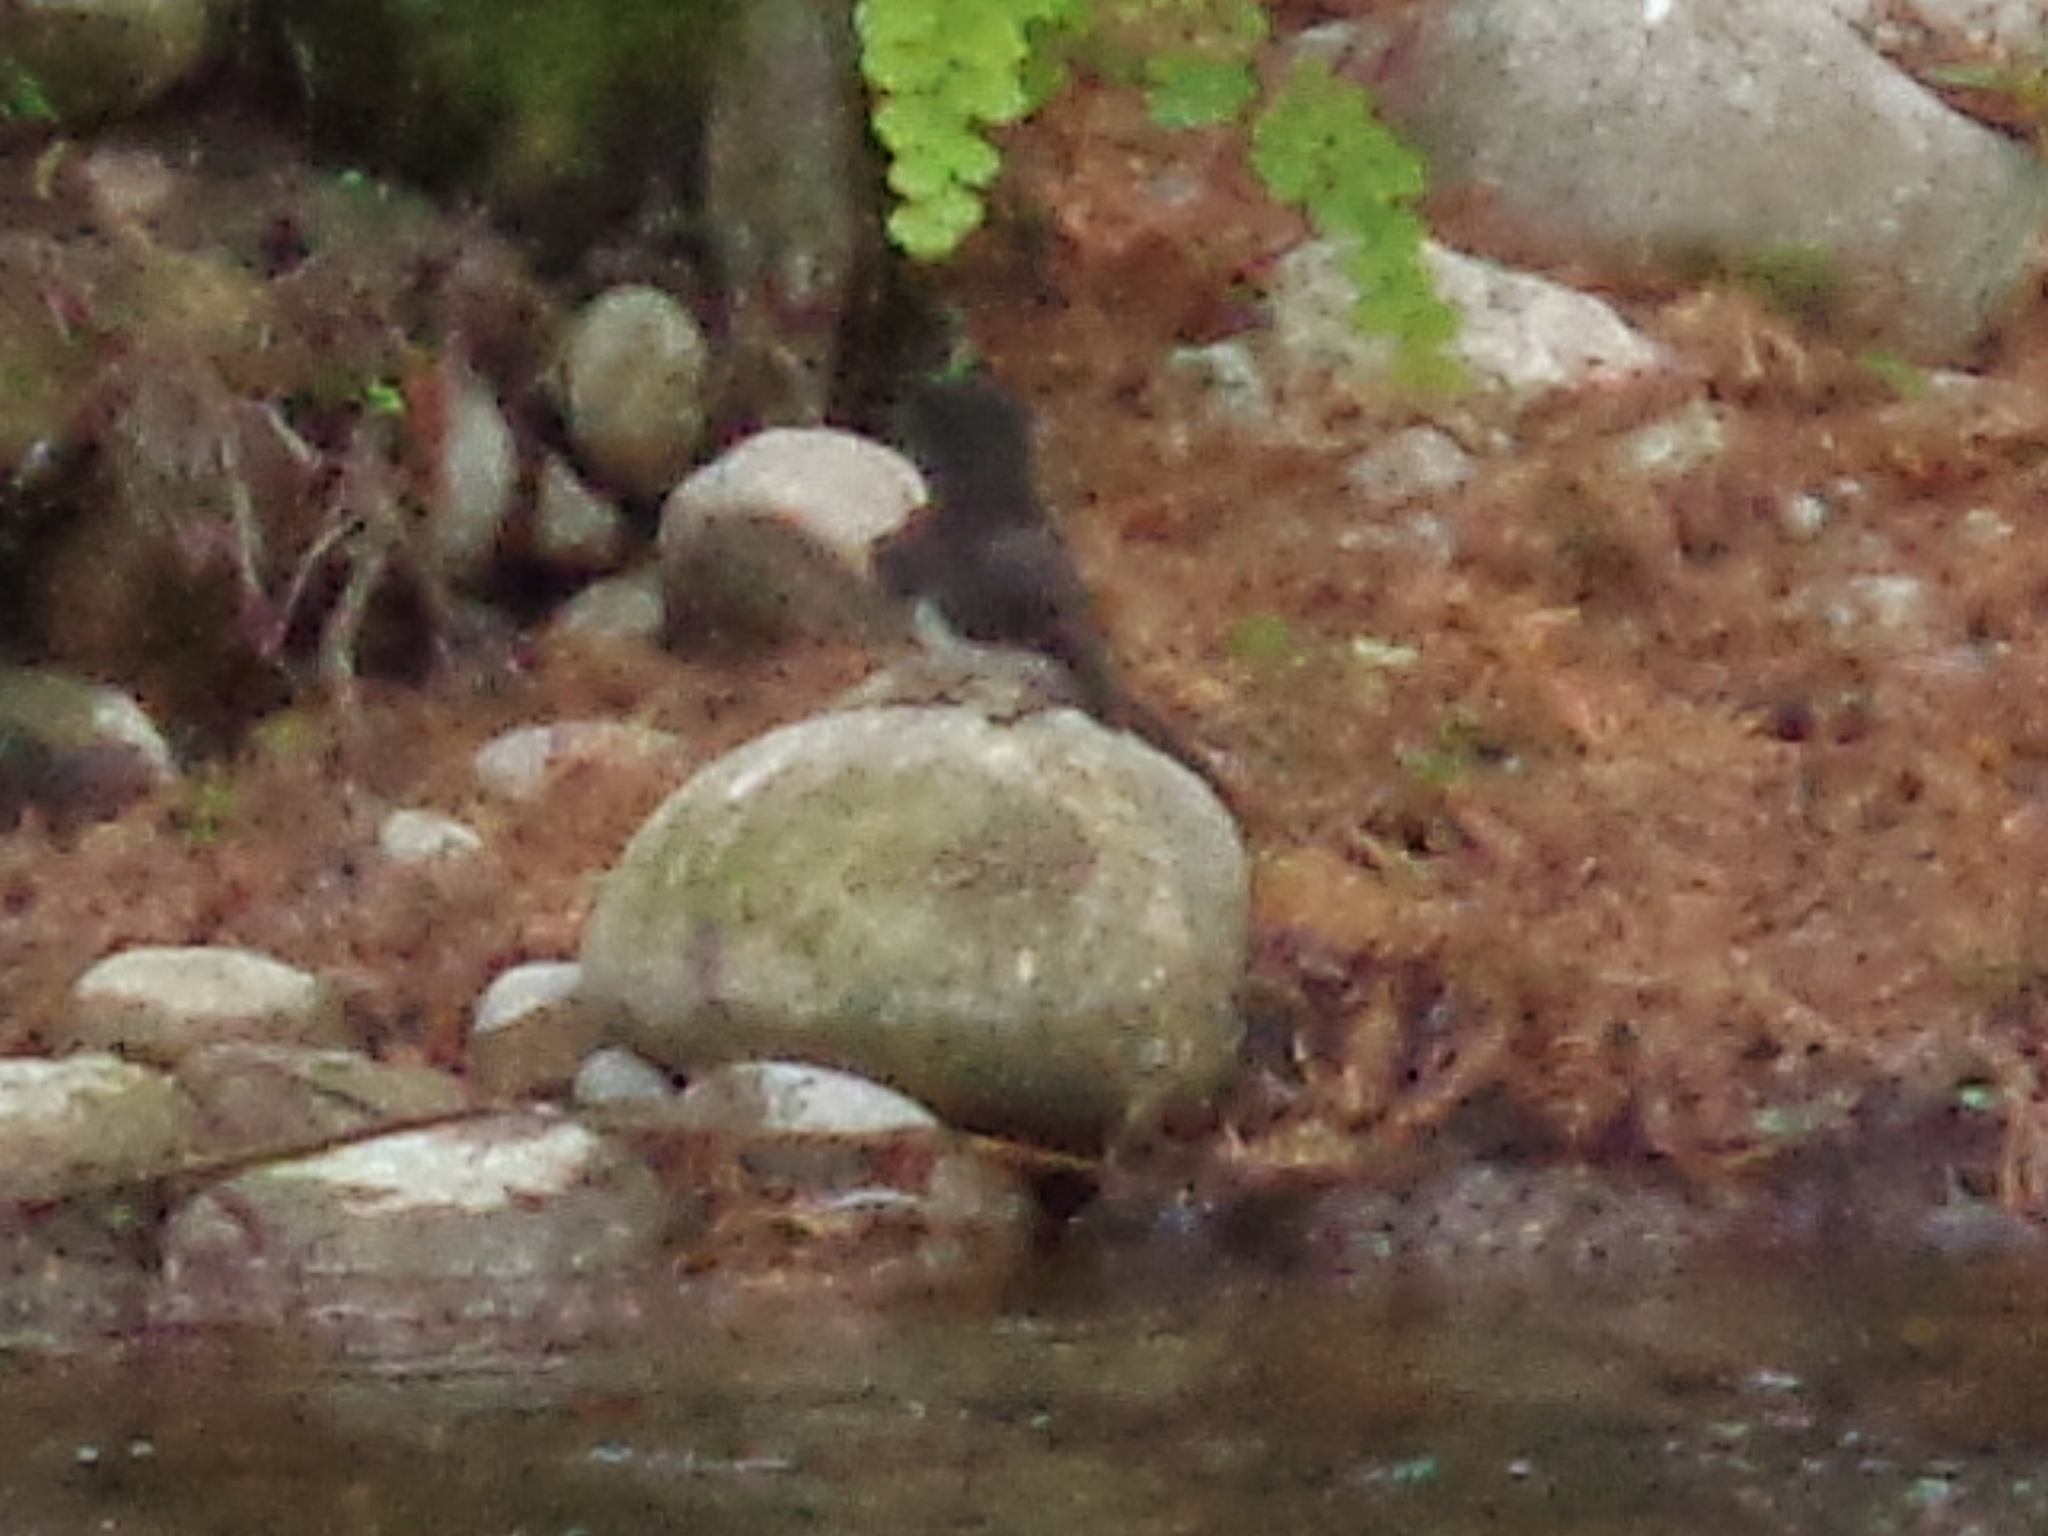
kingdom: Animalia
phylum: Chordata
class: Aves
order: Passeriformes
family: Tyrannidae
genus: Sayornis
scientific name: Sayornis nigricans
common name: Black phoebe
